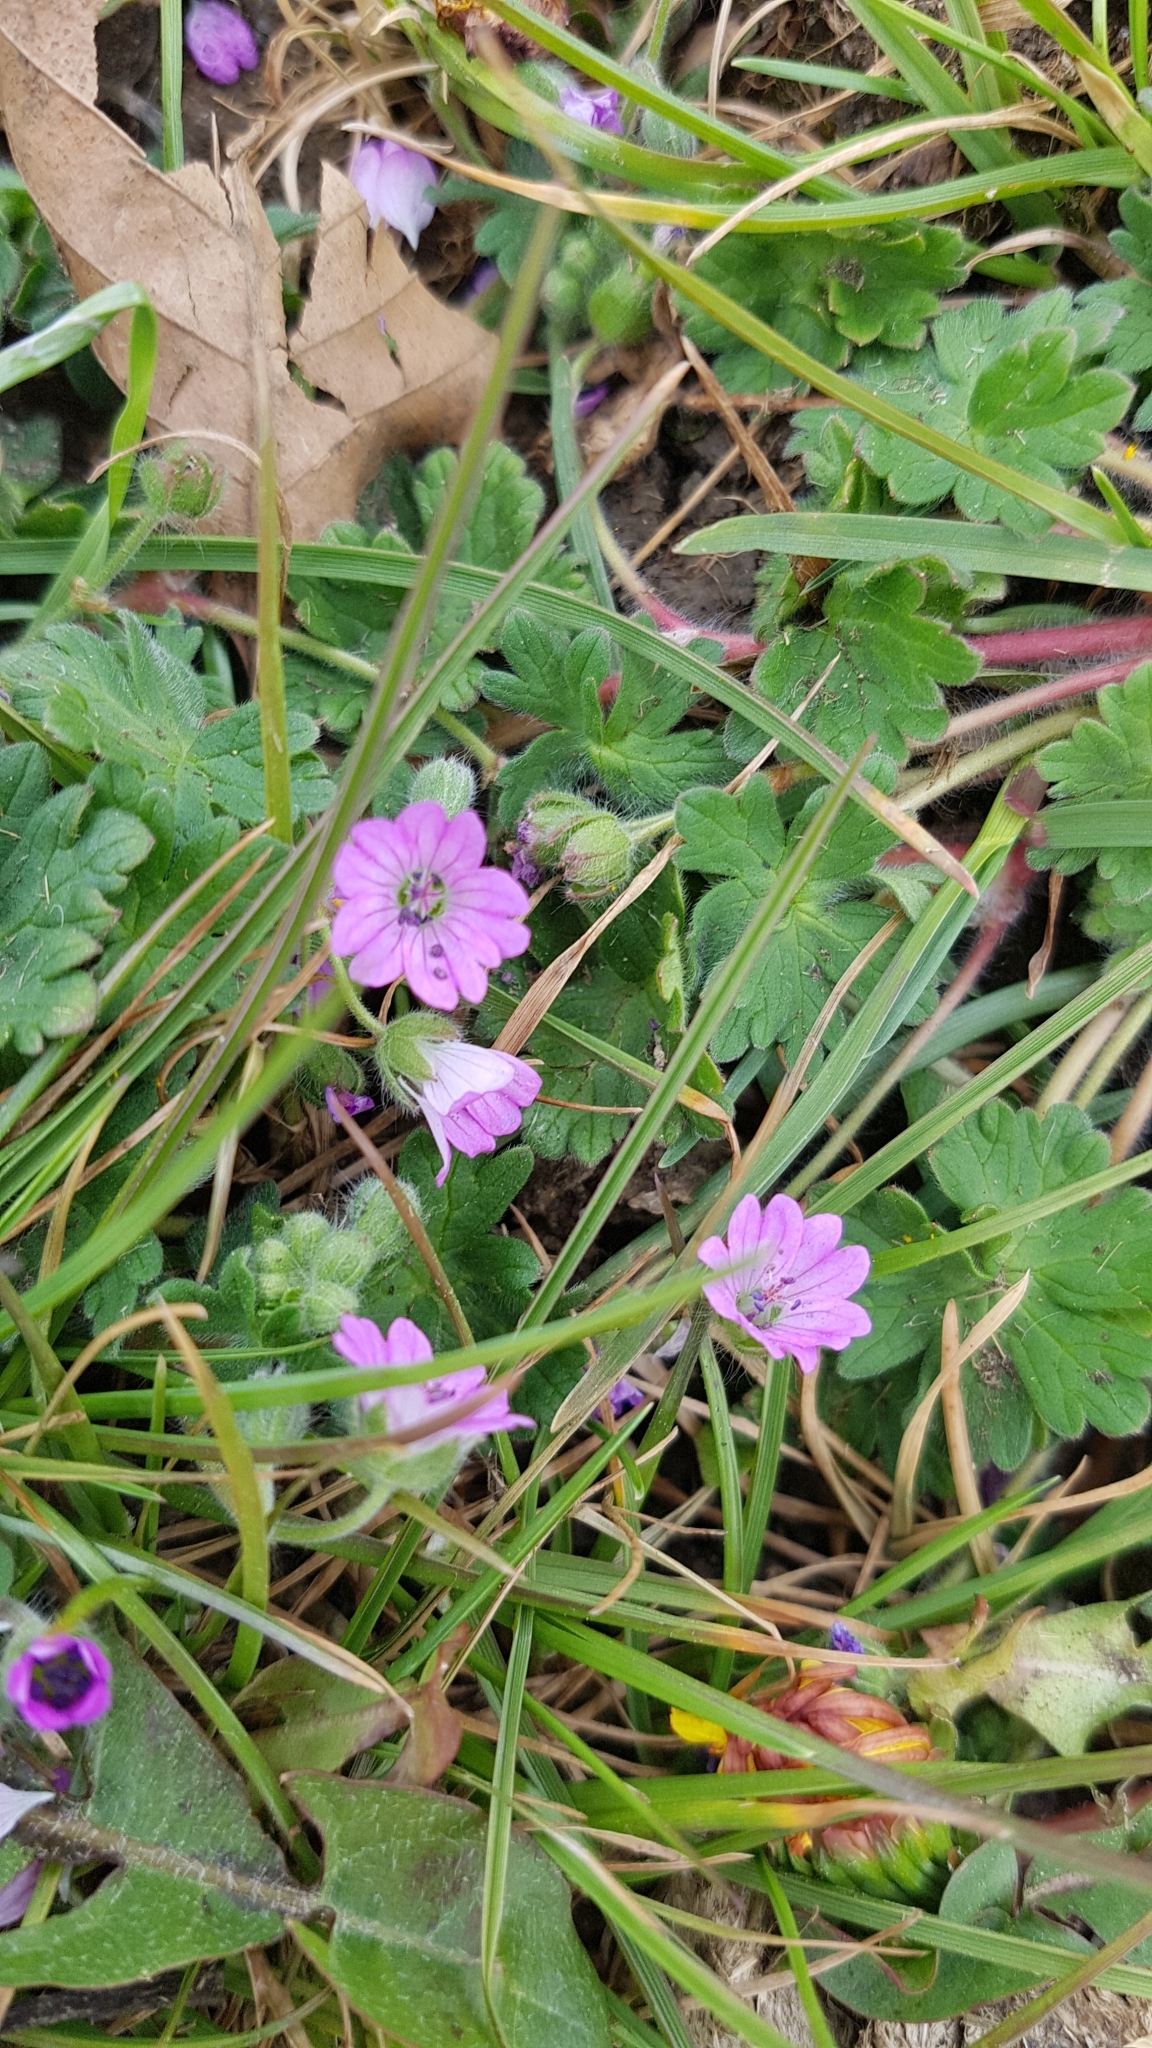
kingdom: Plantae
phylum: Tracheophyta
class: Magnoliopsida
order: Geraniales
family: Geraniaceae
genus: Geranium
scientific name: Geranium molle
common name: Dove's-foot crane's-bill
